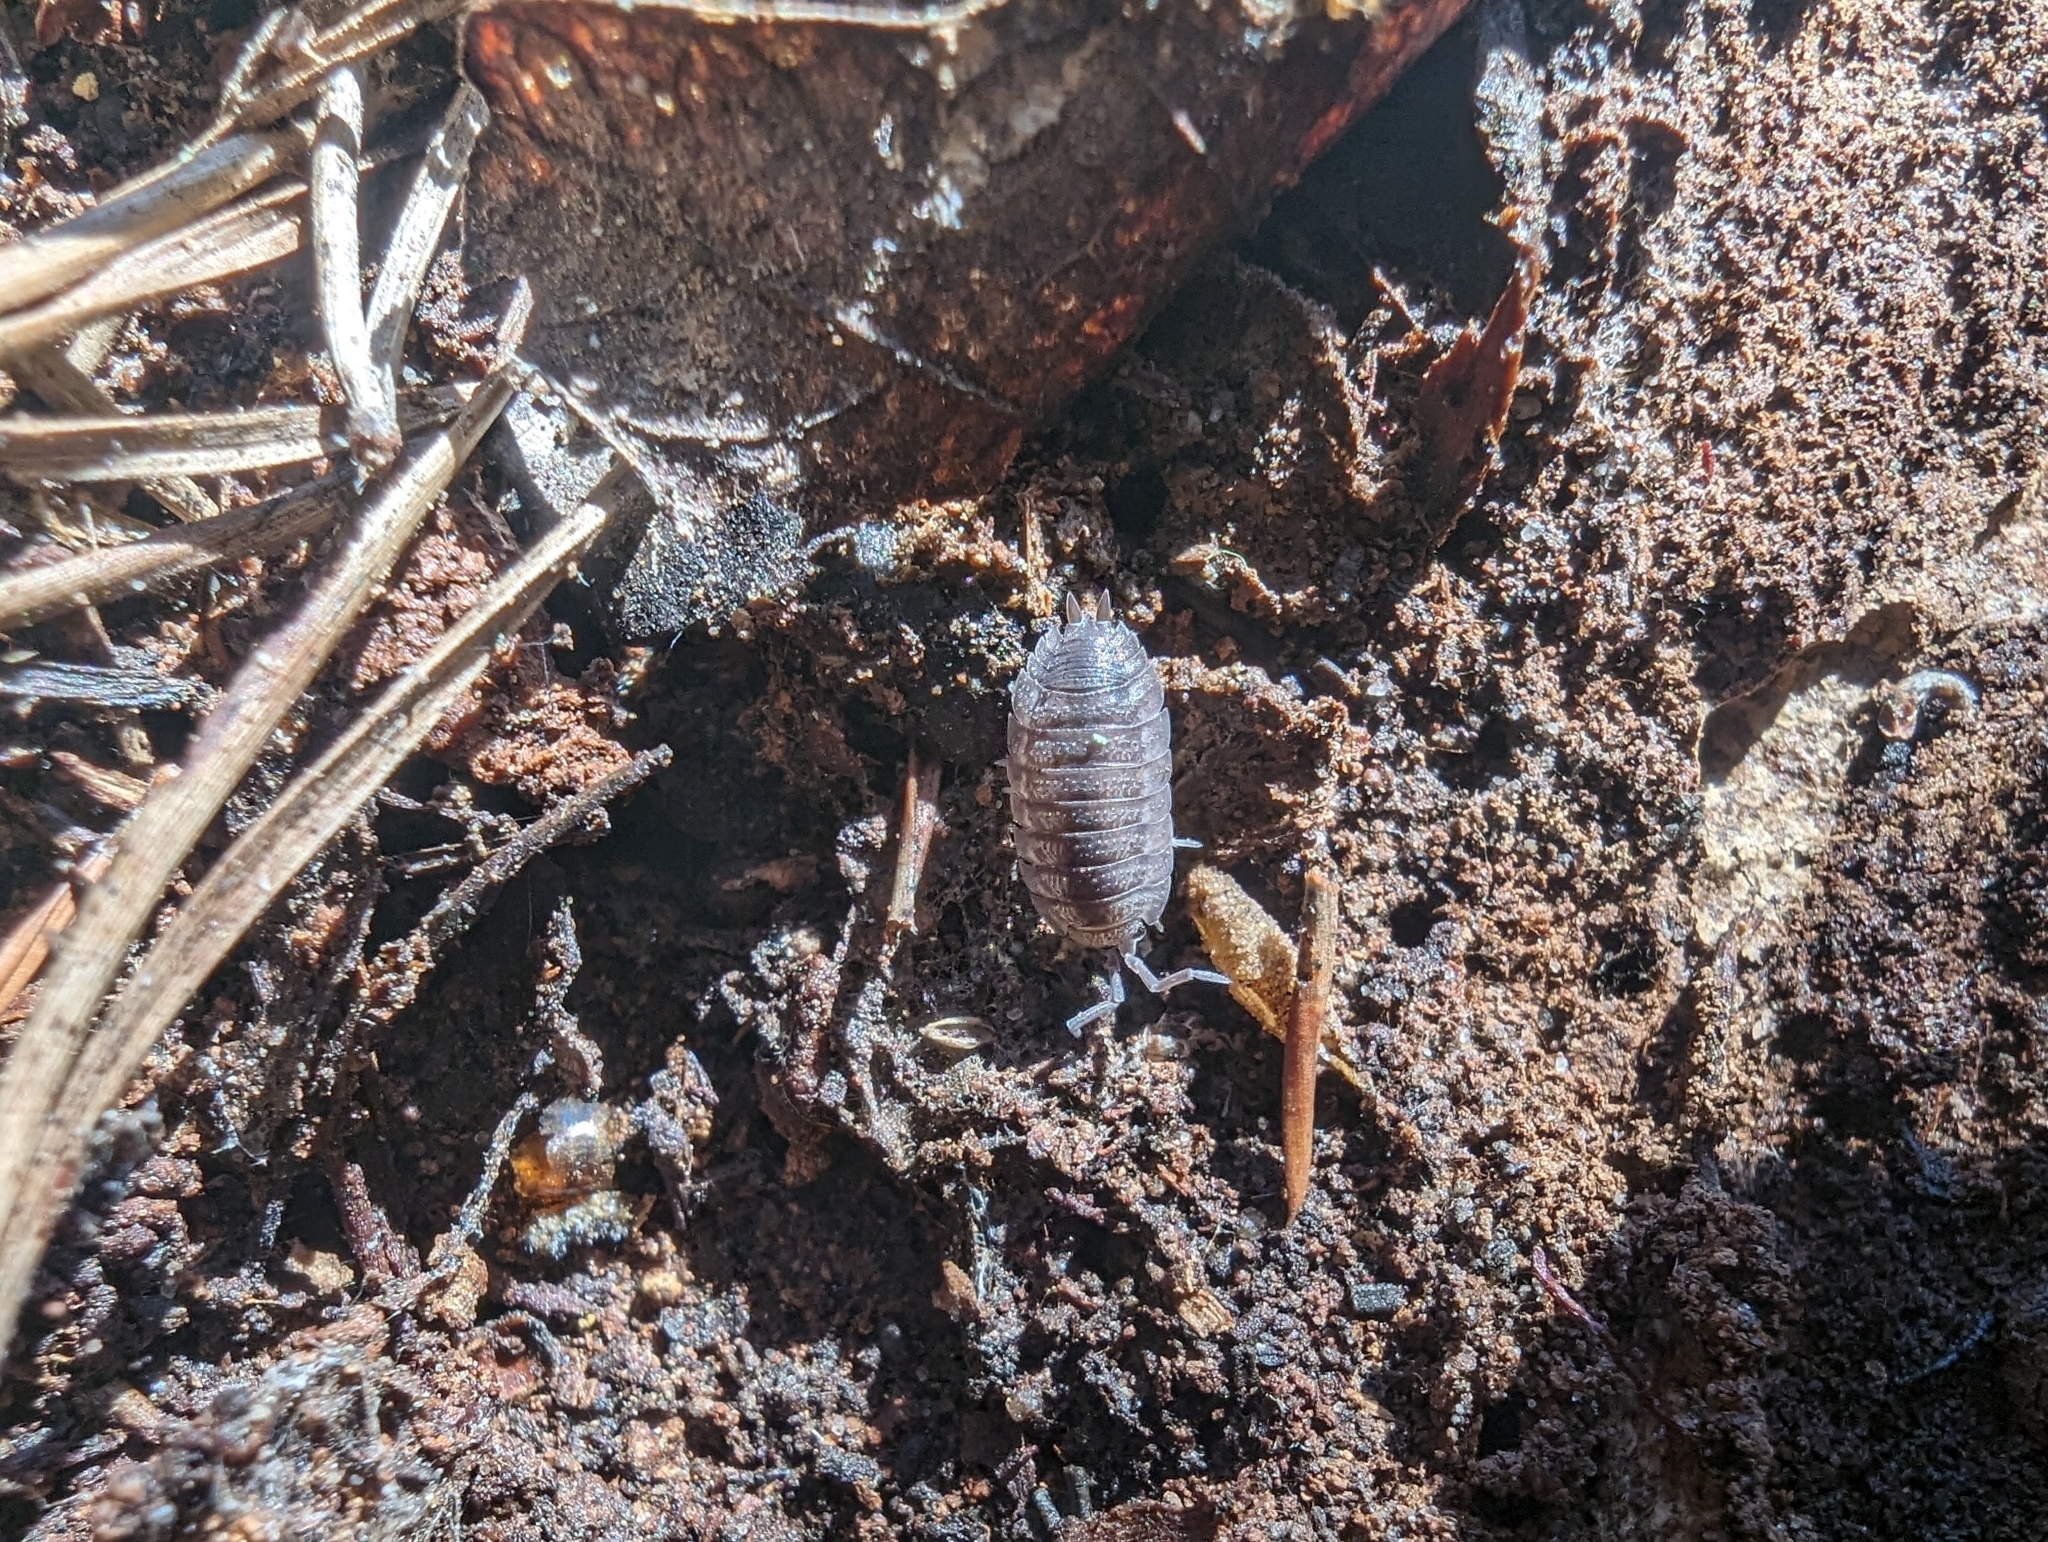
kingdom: Animalia
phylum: Arthropoda
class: Malacostraca
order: Isopoda
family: Porcellionidae
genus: Porcellio
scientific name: Porcellio scaber
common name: Common rough woodlouse
